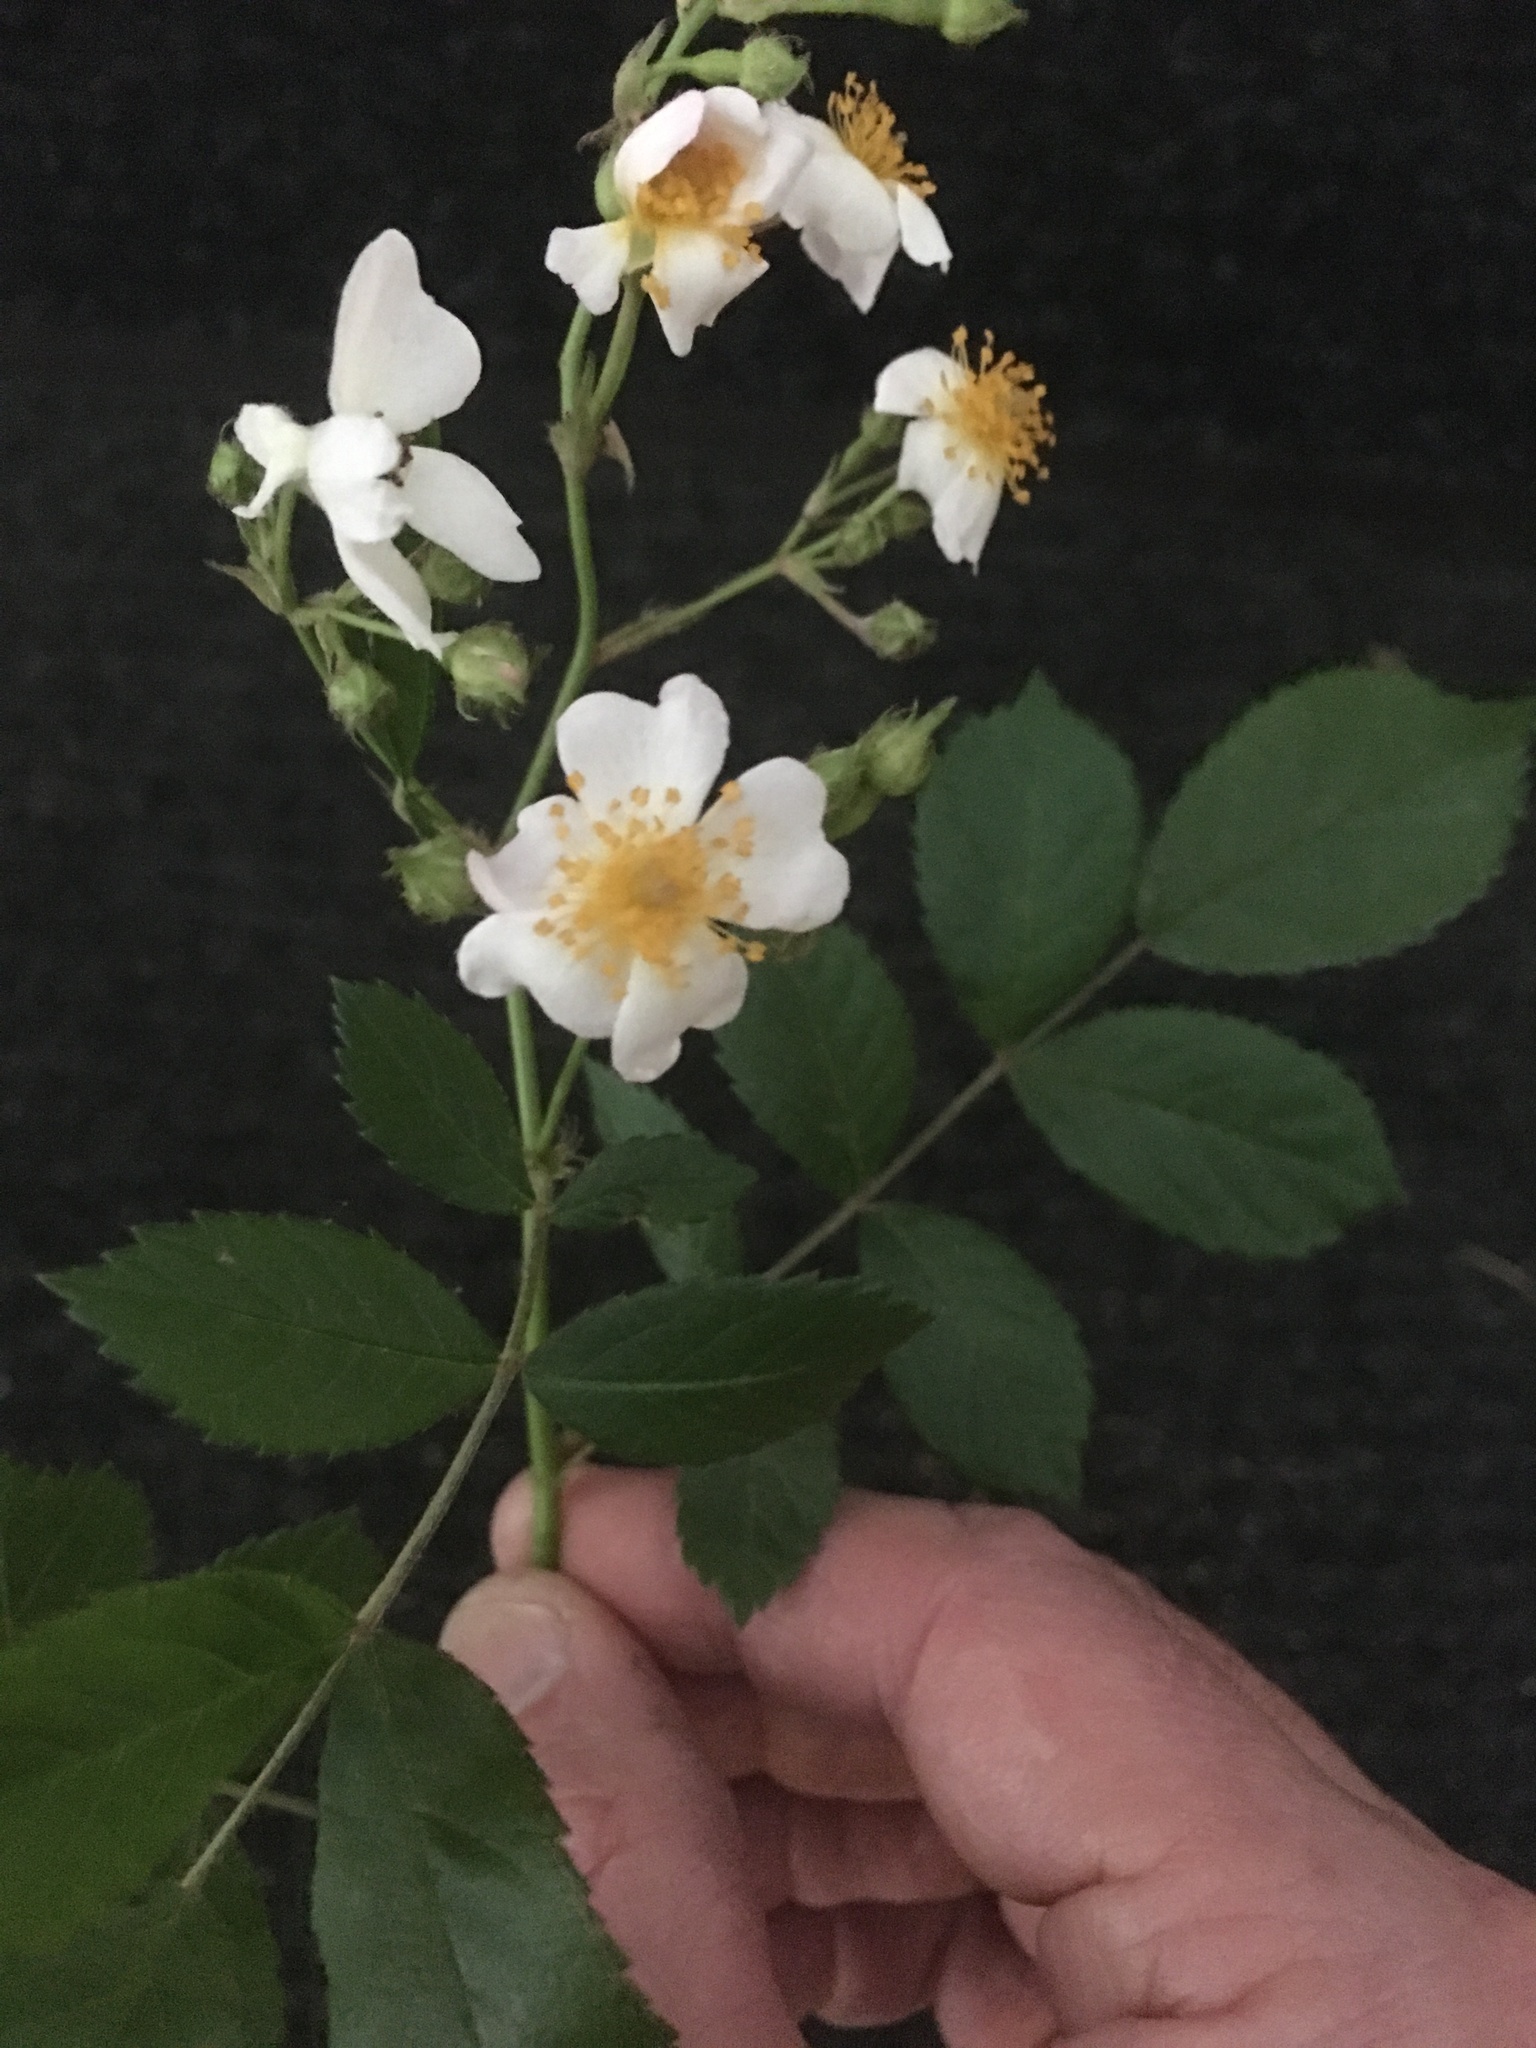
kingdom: Plantae
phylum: Tracheophyta
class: Magnoliopsida
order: Rosales
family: Rosaceae
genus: Rosa
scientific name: Rosa multiflora
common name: Multiflora rose
